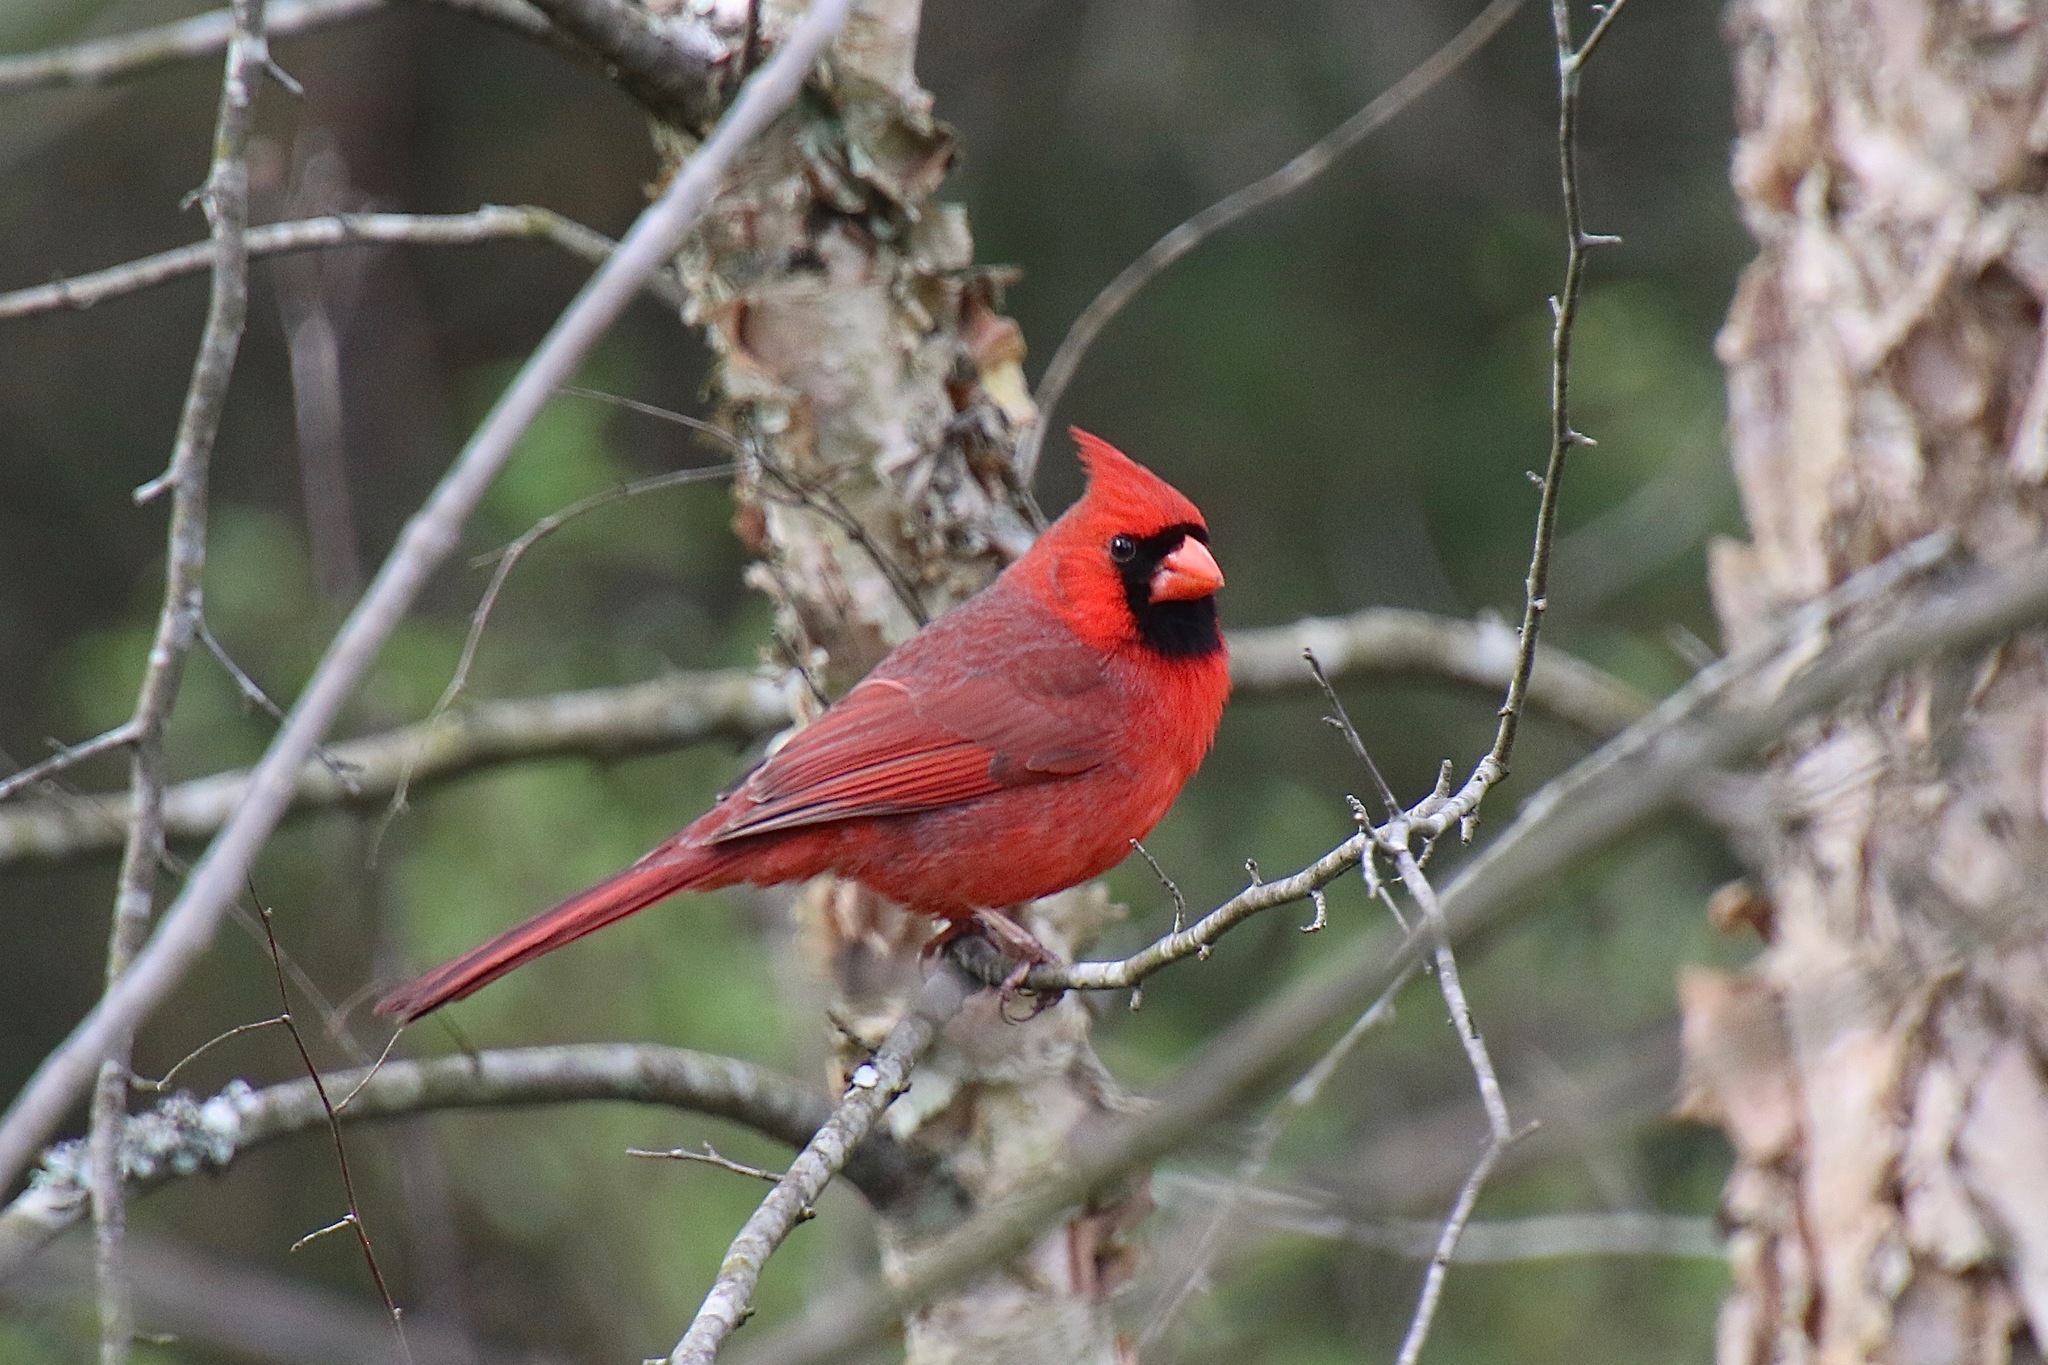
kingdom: Animalia
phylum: Chordata
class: Aves
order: Passeriformes
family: Cardinalidae
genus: Cardinalis
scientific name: Cardinalis cardinalis
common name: Northern cardinal
